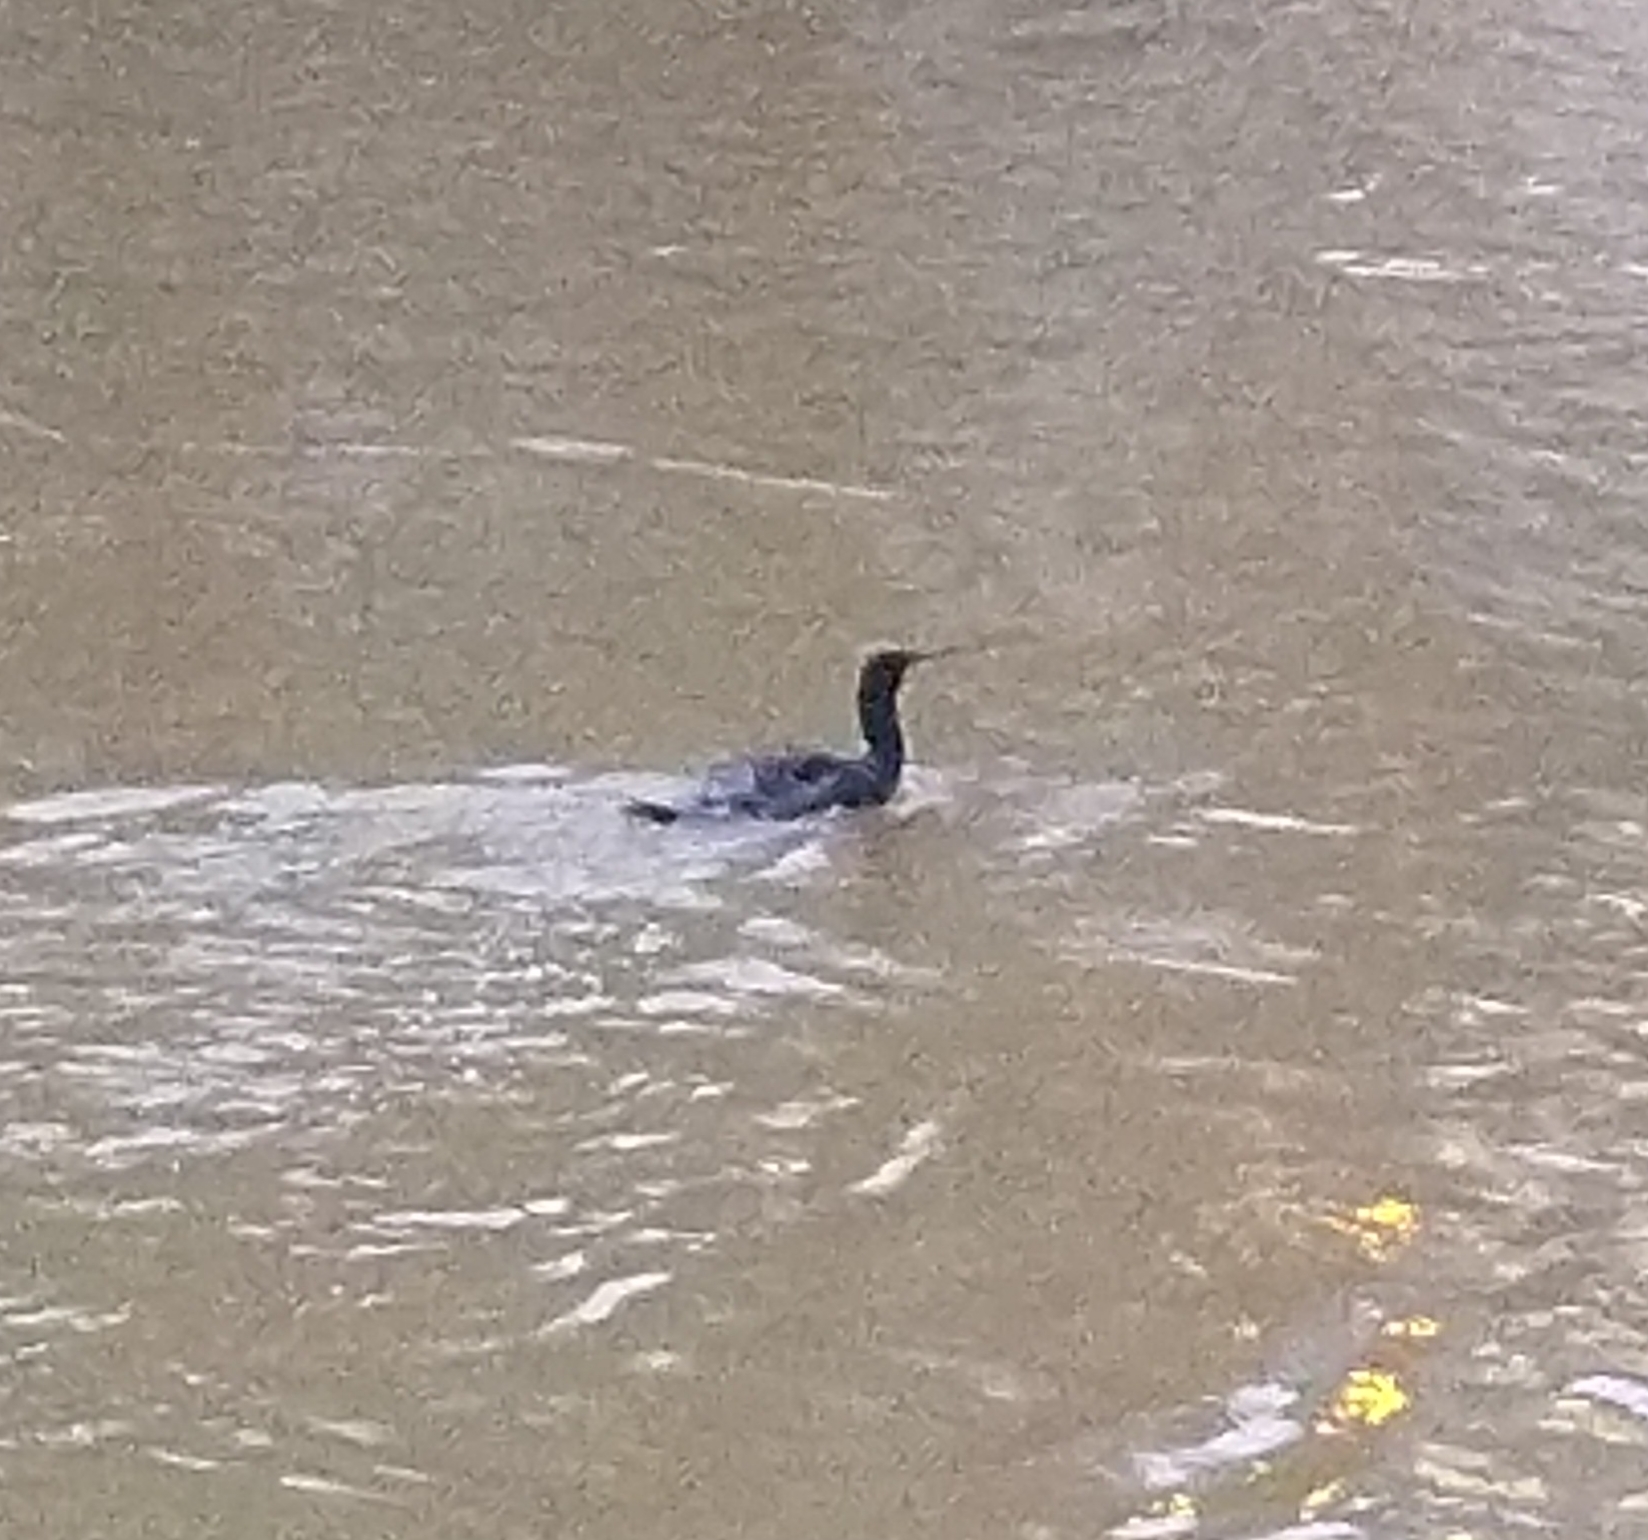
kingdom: Animalia
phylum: Chordata
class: Aves
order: Suliformes
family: Phalacrocoracidae
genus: Phalacrocorax
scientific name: Phalacrocorax carbo
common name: Great cormorant
